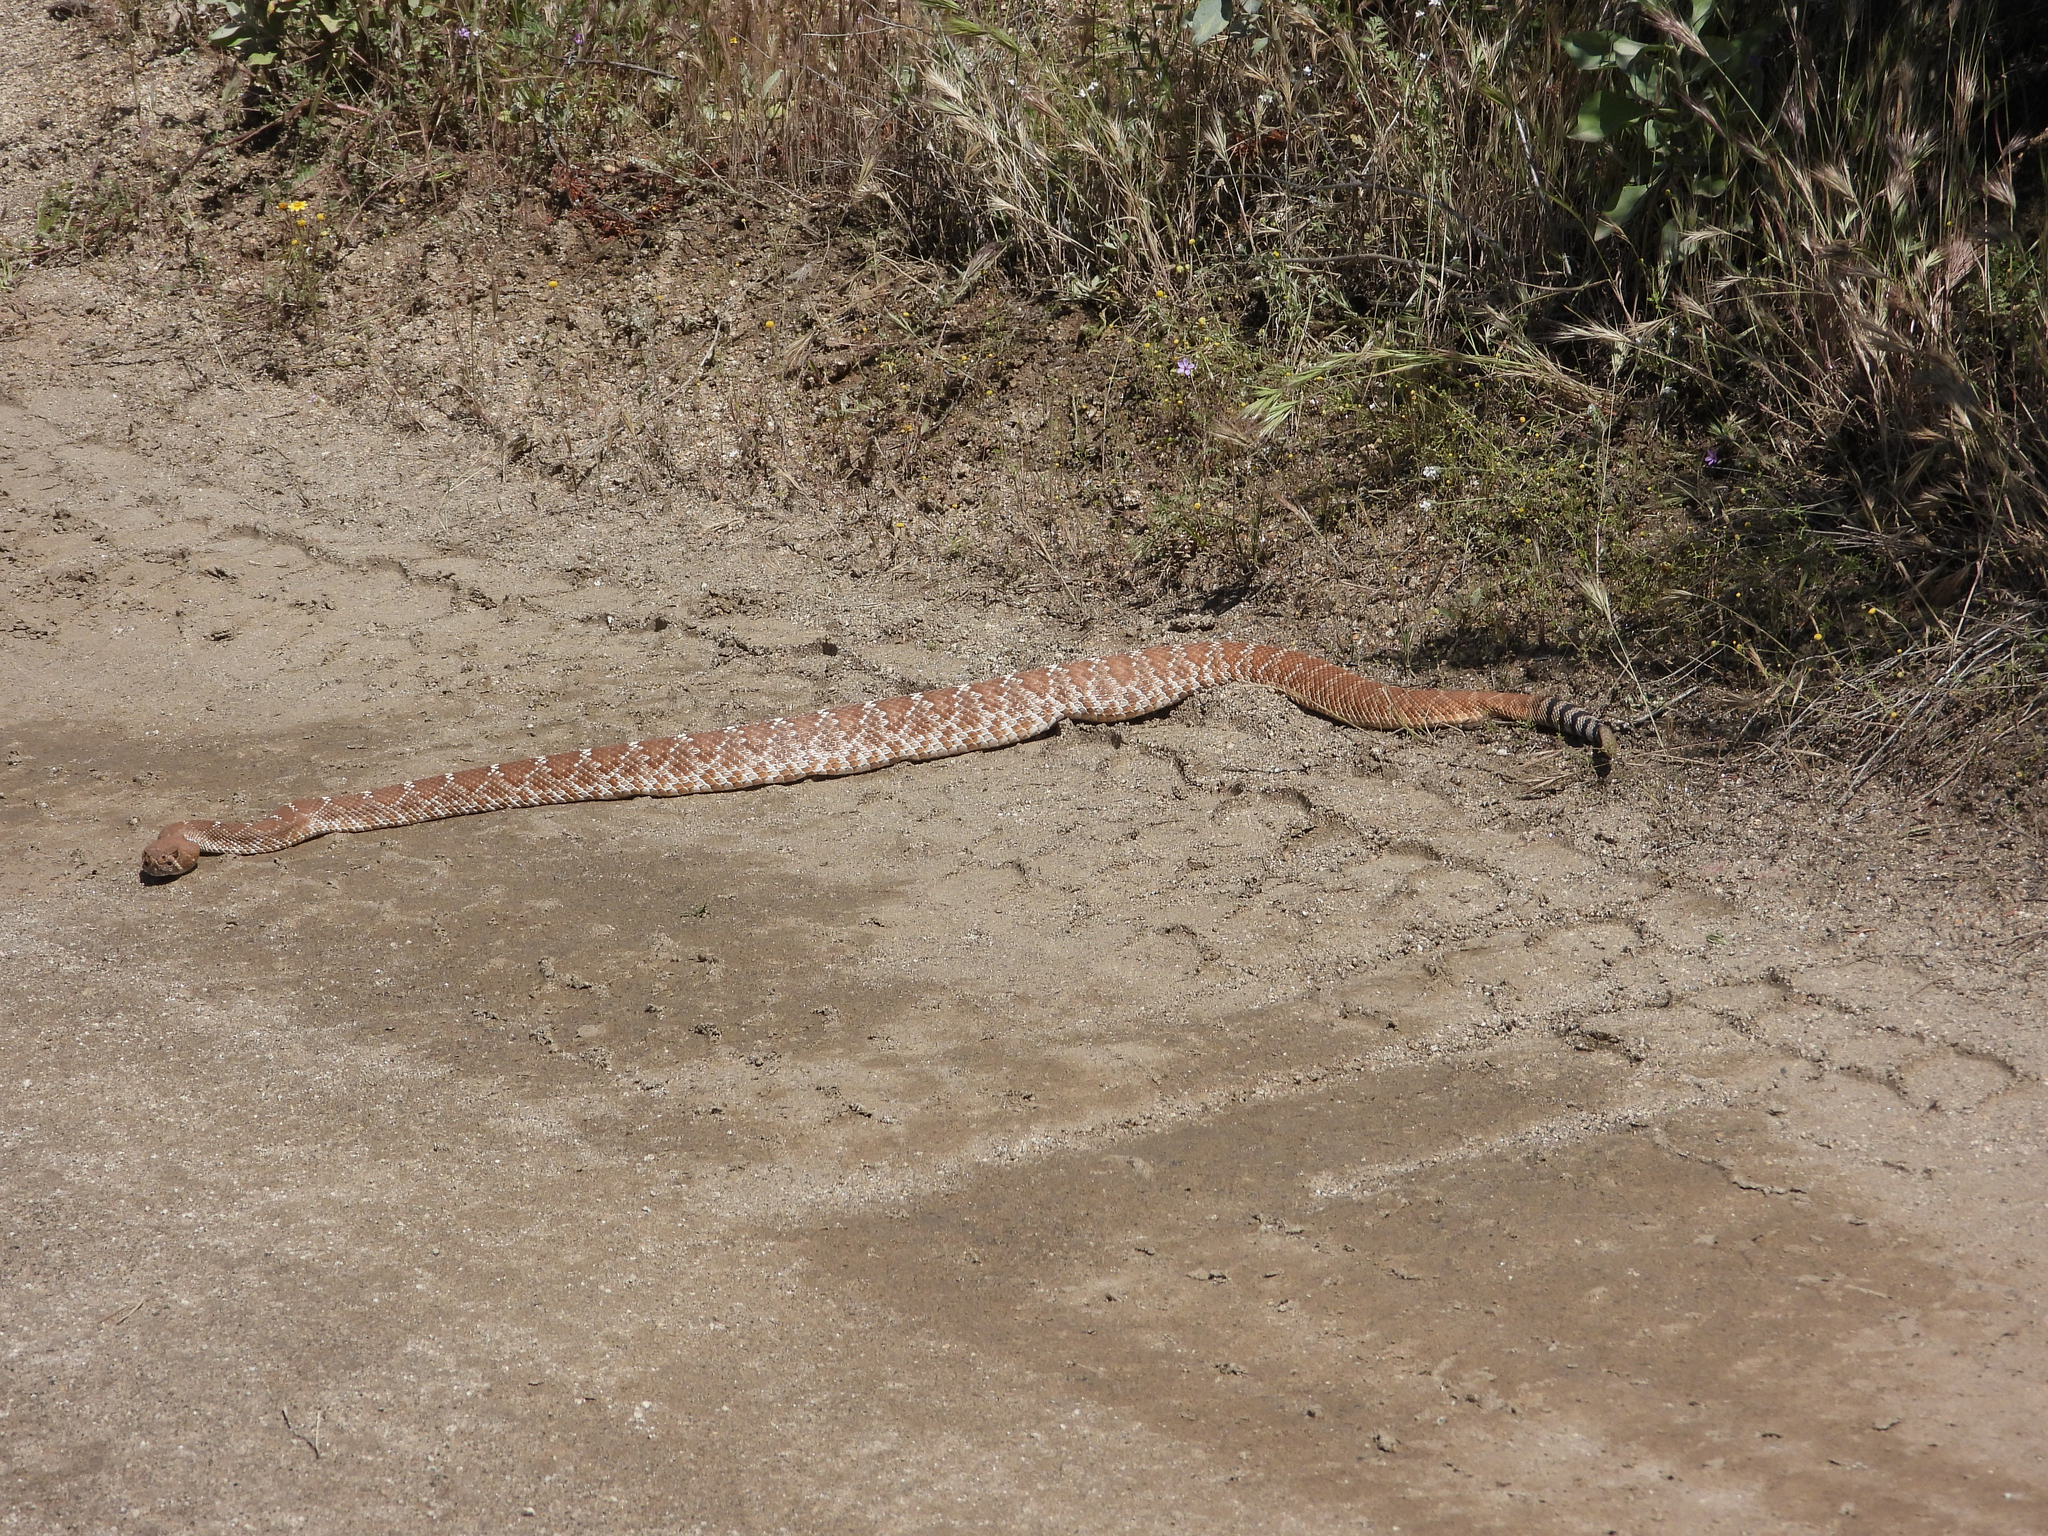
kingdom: Animalia
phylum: Chordata
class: Squamata
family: Viperidae
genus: Crotalus
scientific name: Crotalus ruber
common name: Red diamond rattlesnake
